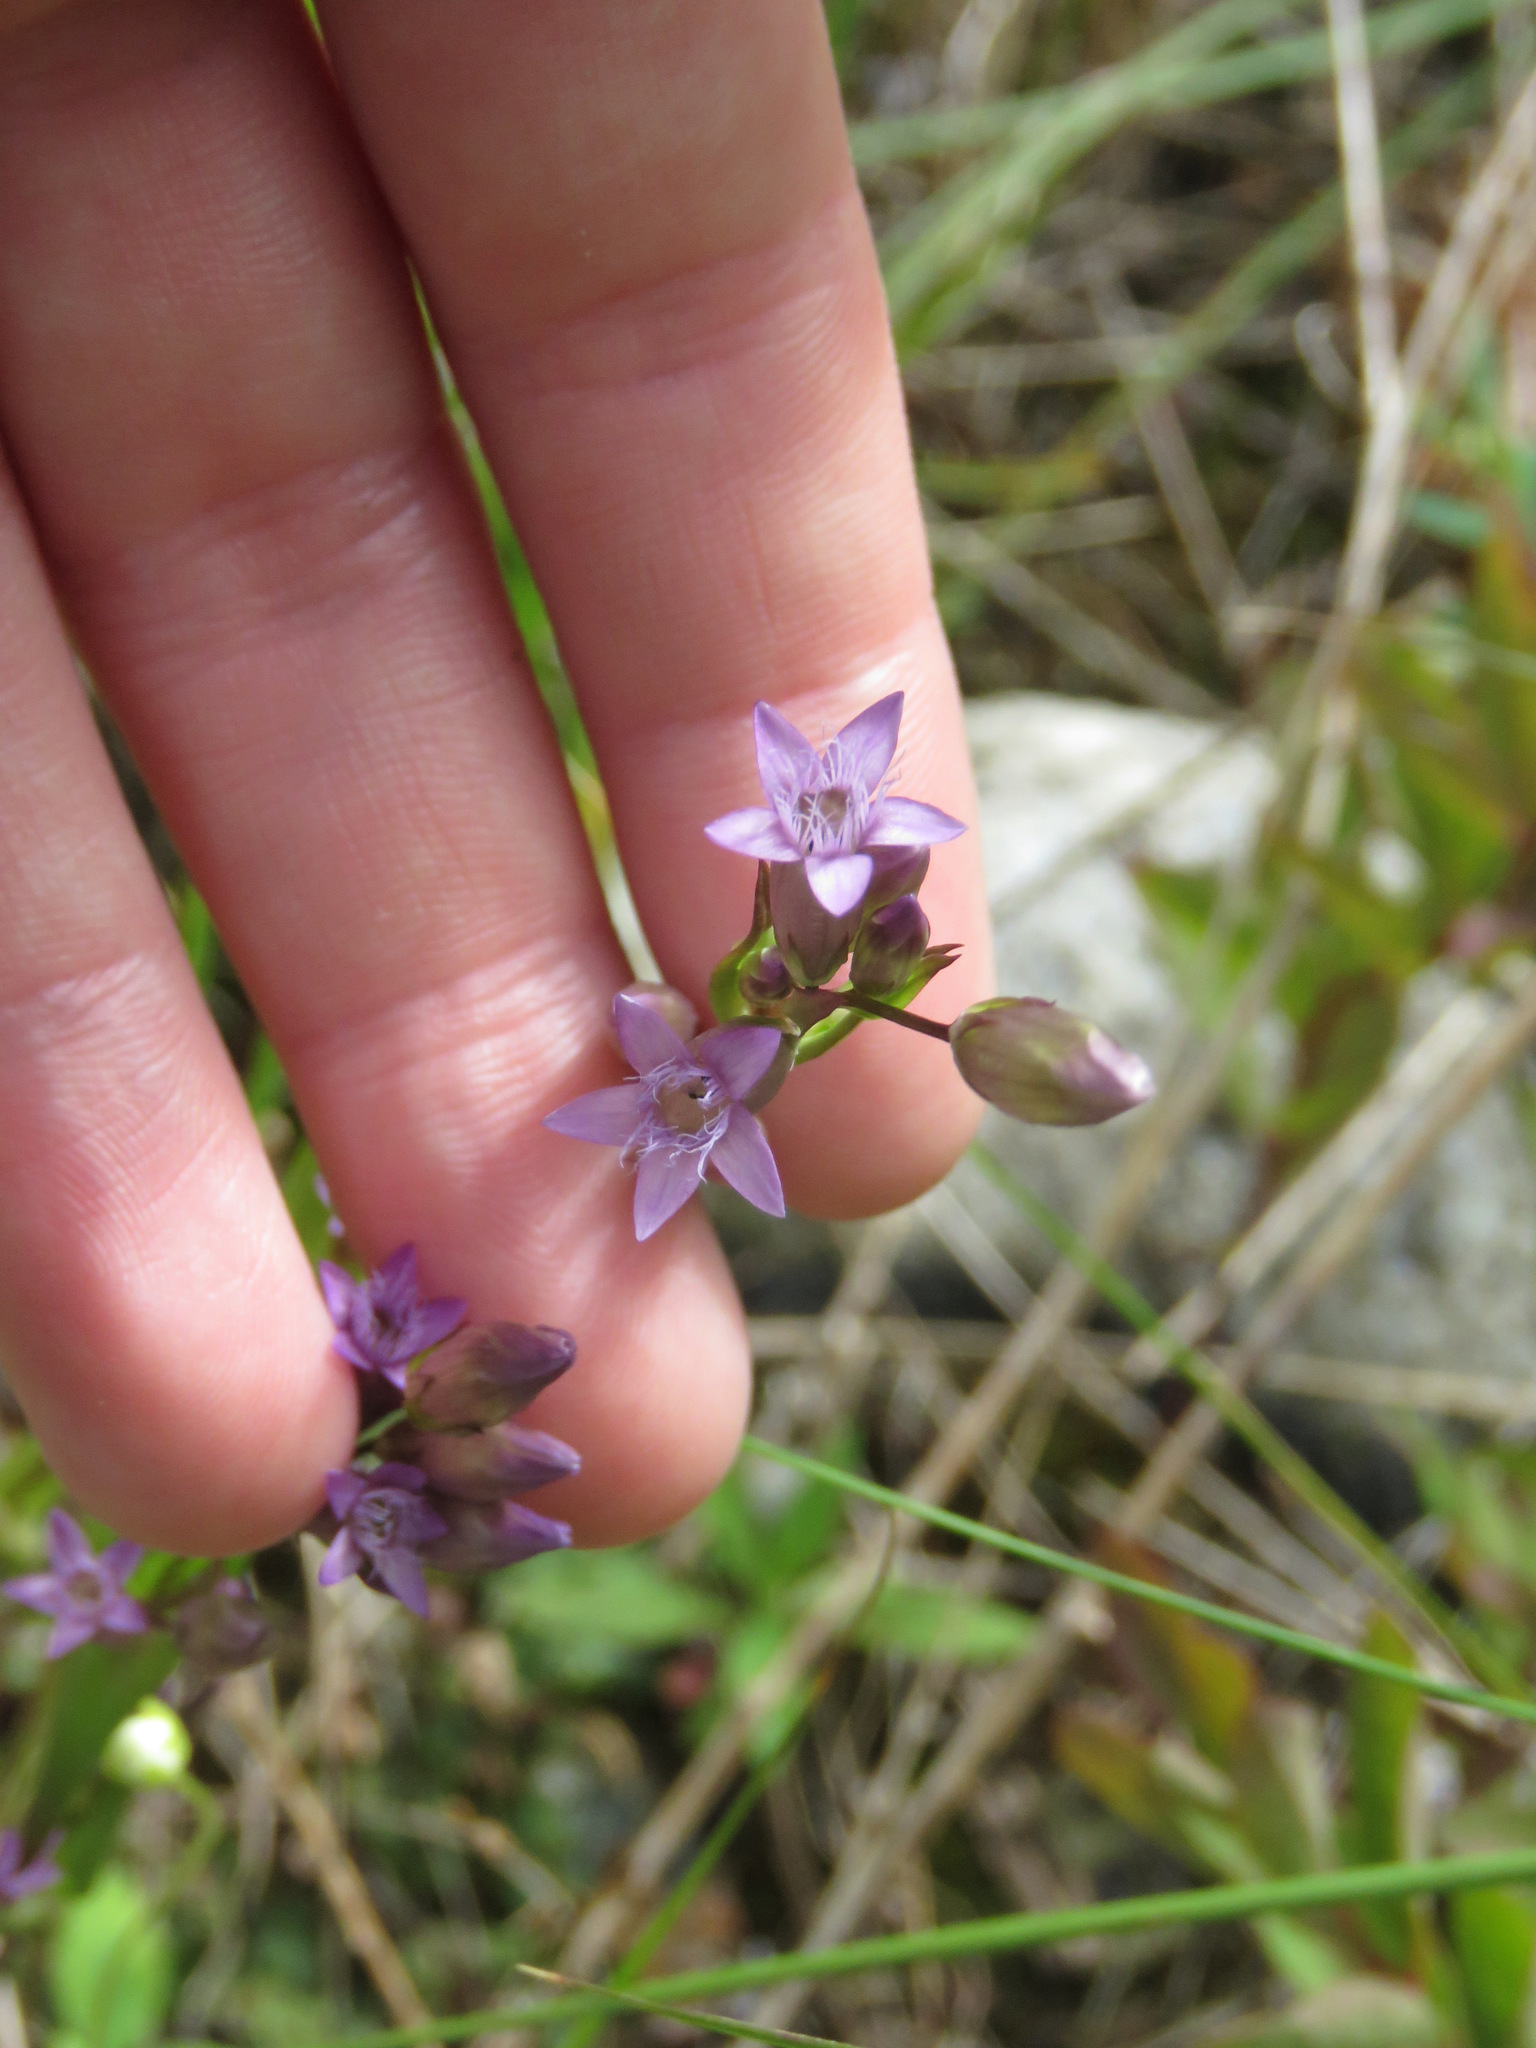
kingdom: Plantae
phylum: Tracheophyta
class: Magnoliopsida
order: Gentianales
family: Gentianaceae
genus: Gentianella
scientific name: Gentianella amarella
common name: Autumn gentian
